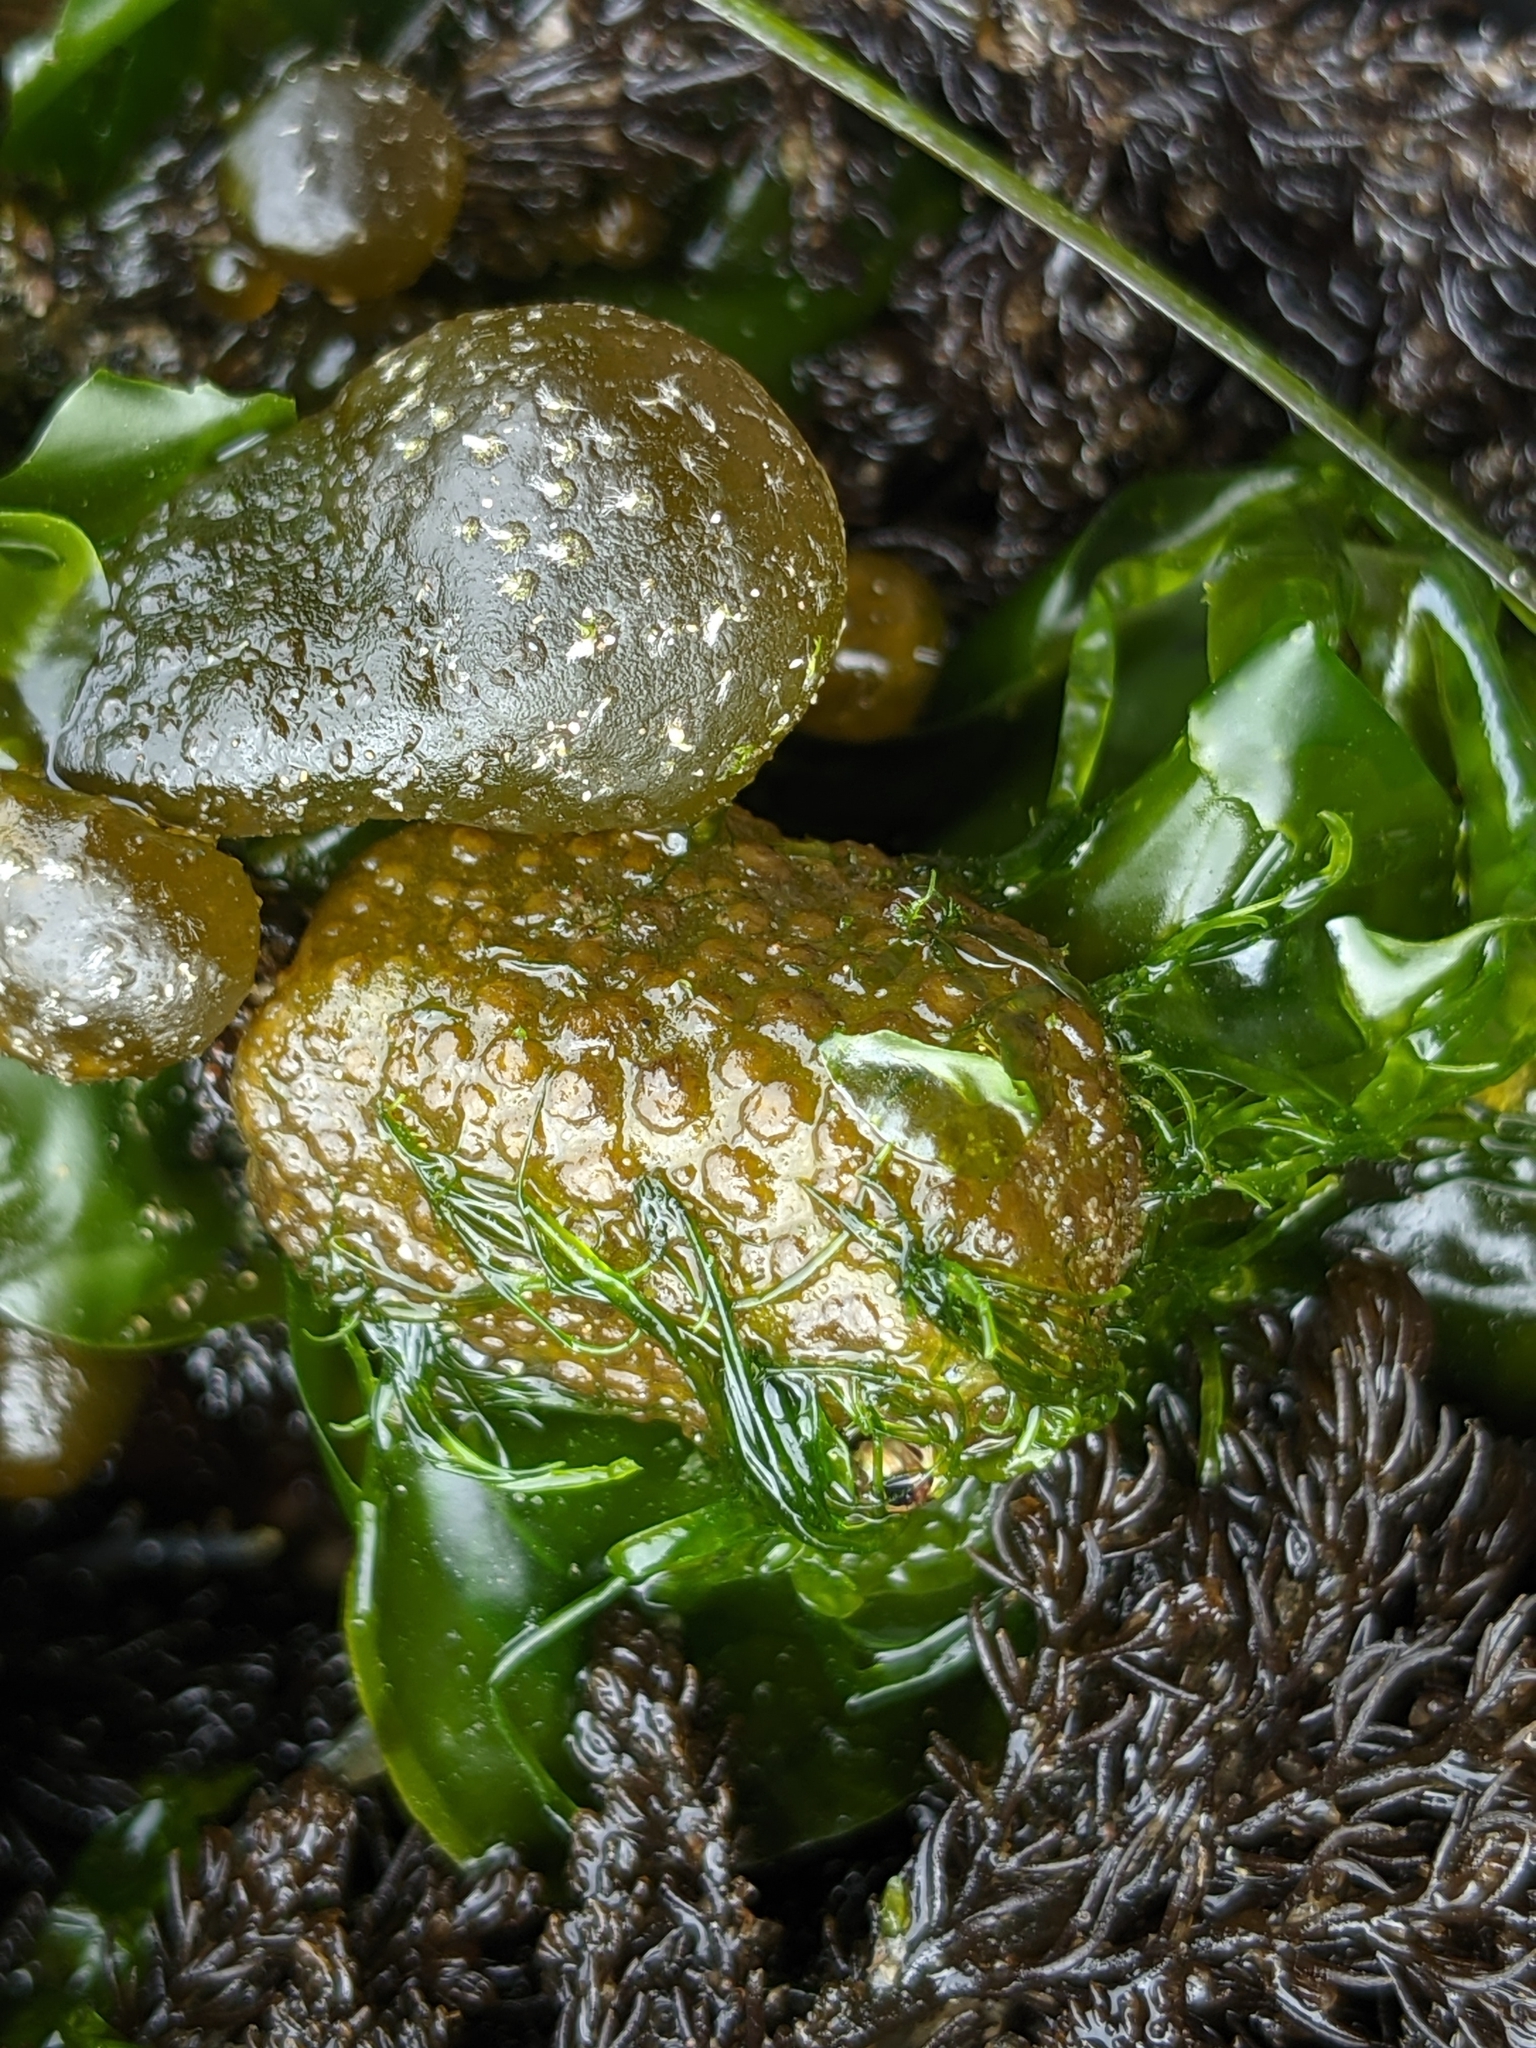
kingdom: Chromista
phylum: Ochrophyta
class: Phaeophyceae
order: Dictyosiphonales
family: Punctariaceae
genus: Soranthera
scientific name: Soranthera ulvoidea
